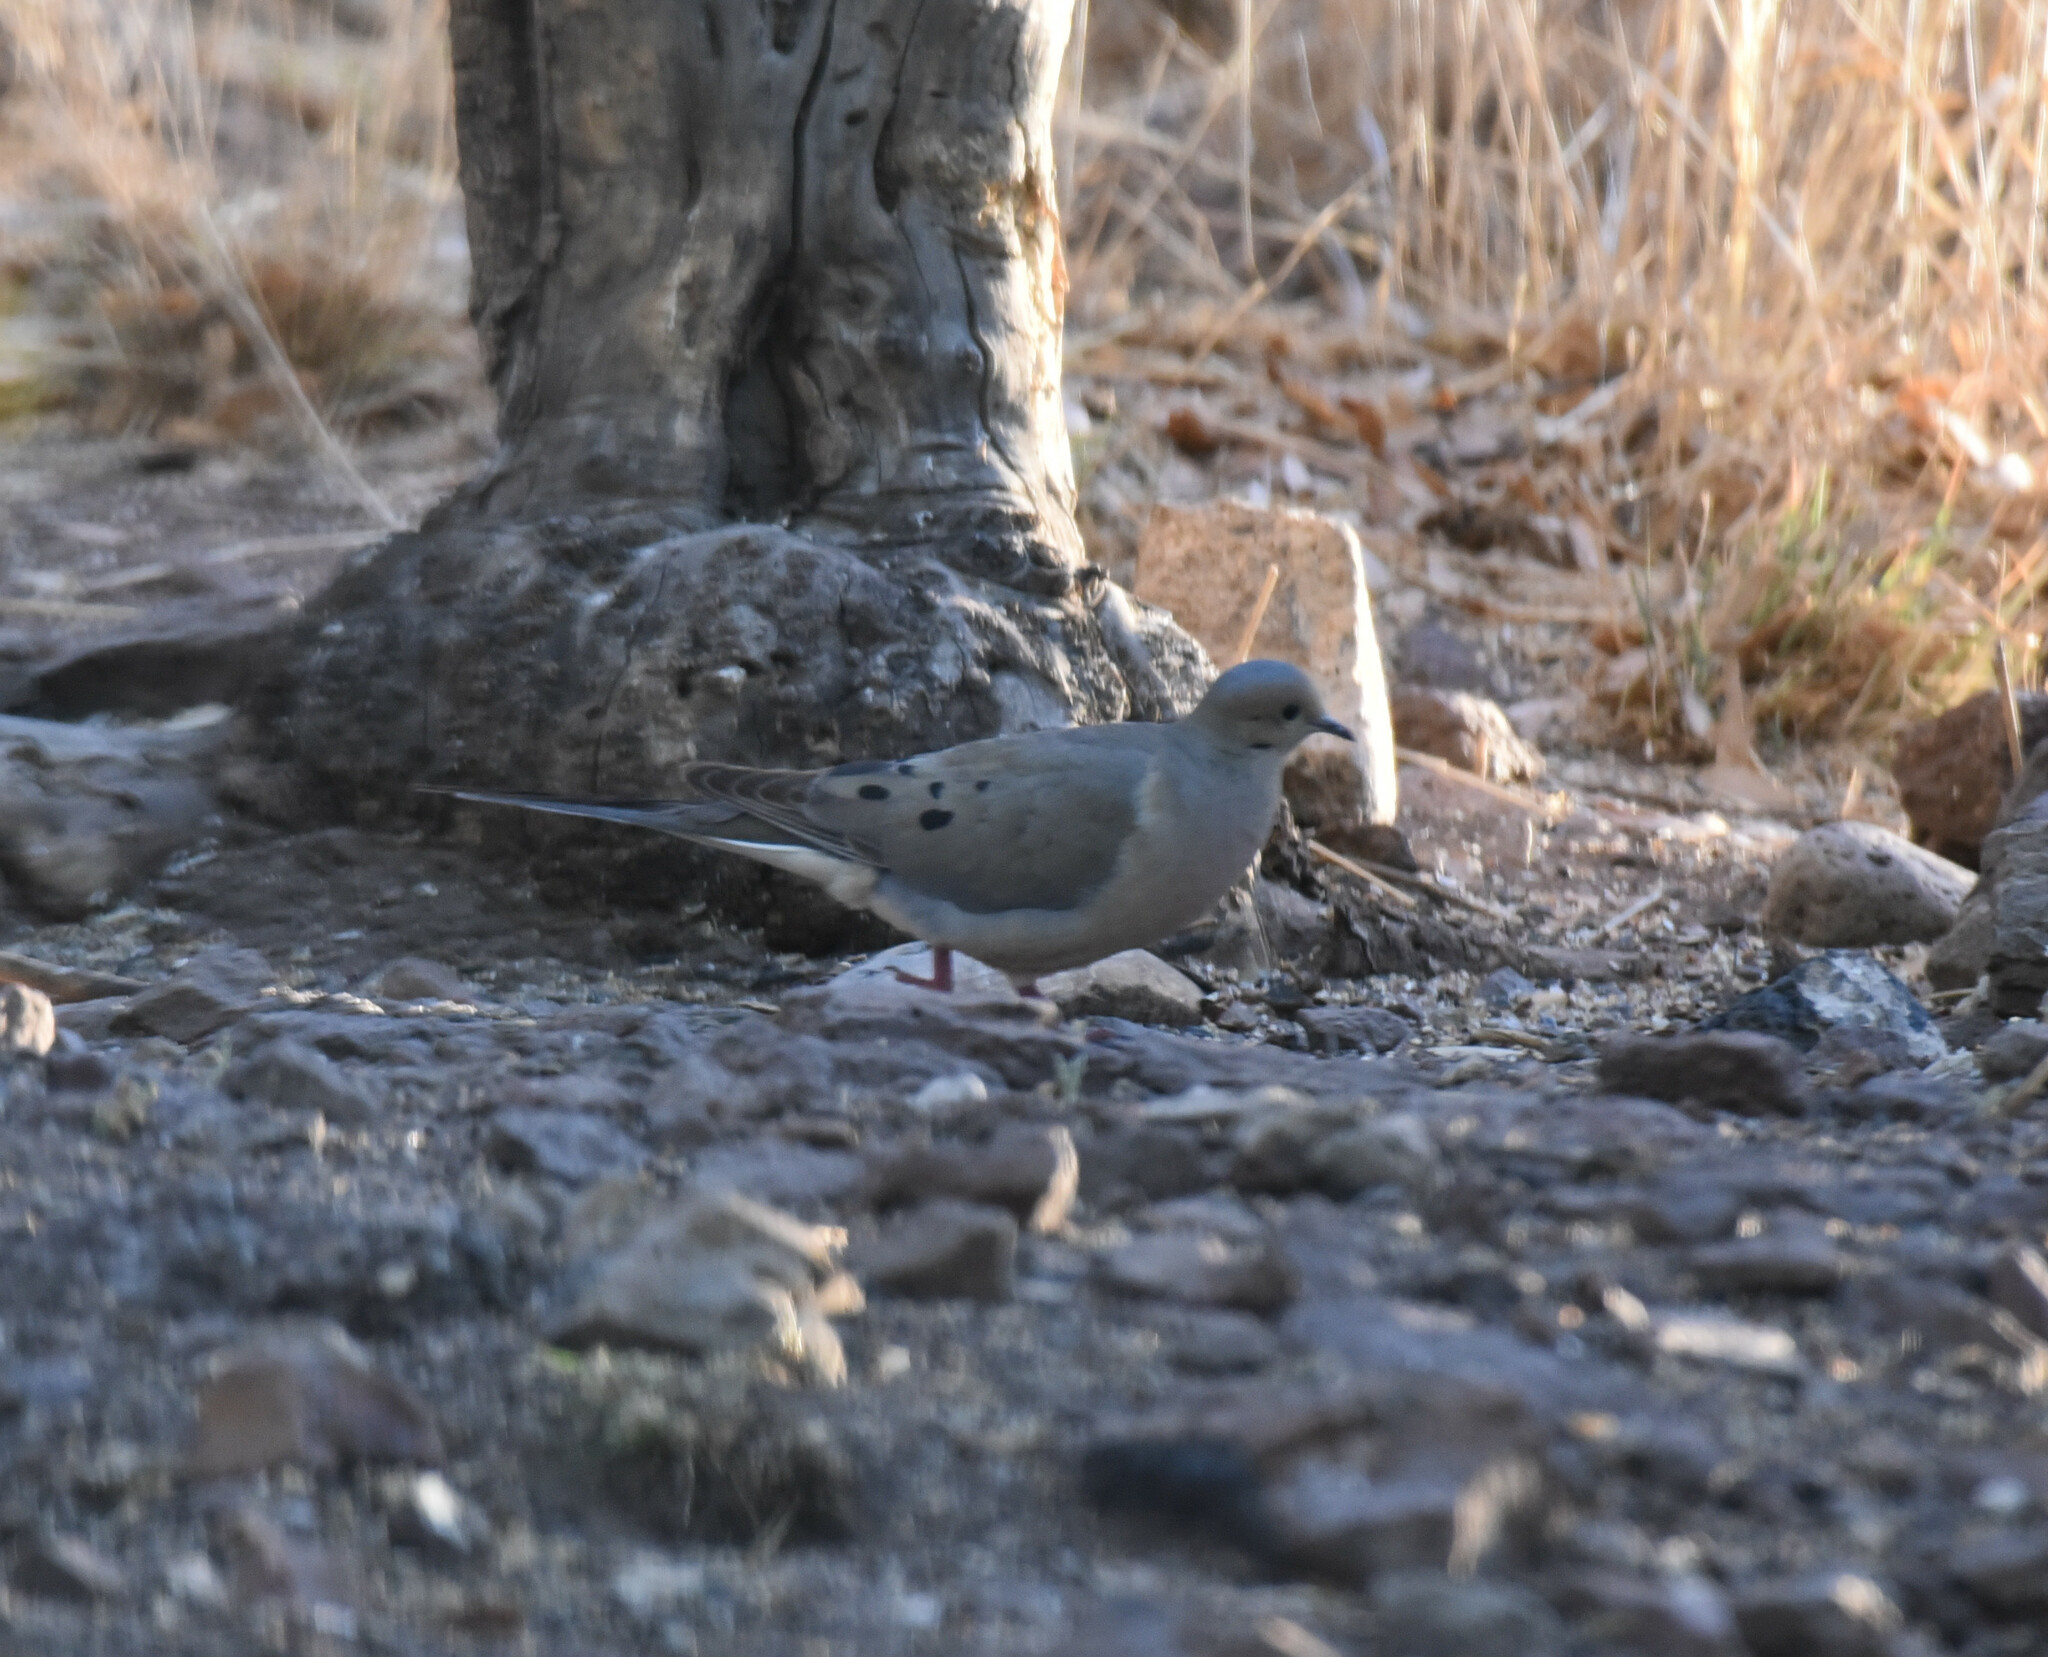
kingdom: Animalia
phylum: Chordata
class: Aves
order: Columbiformes
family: Columbidae
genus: Zenaida
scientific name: Zenaida macroura
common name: Mourning dove
